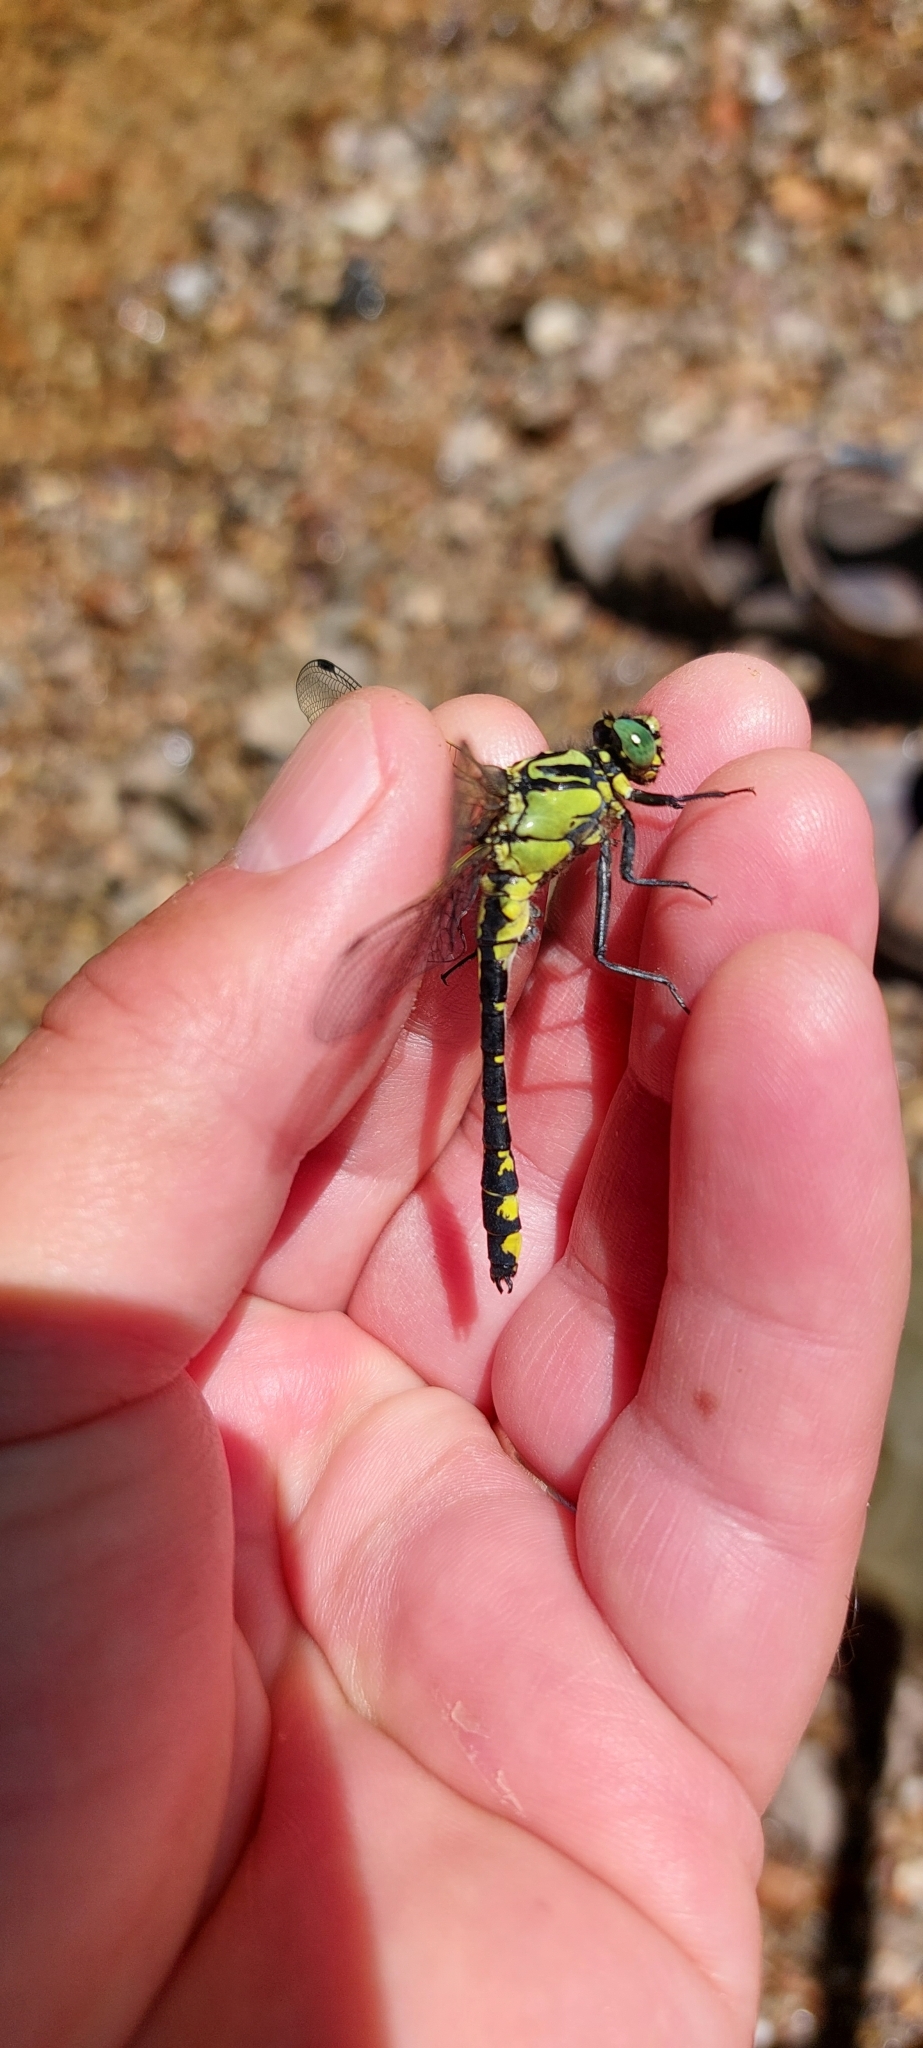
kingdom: Animalia
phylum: Arthropoda
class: Insecta
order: Odonata
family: Gomphidae
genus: Gomphus
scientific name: Gomphus vulgatissimus
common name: Club-tailed dragonfly
